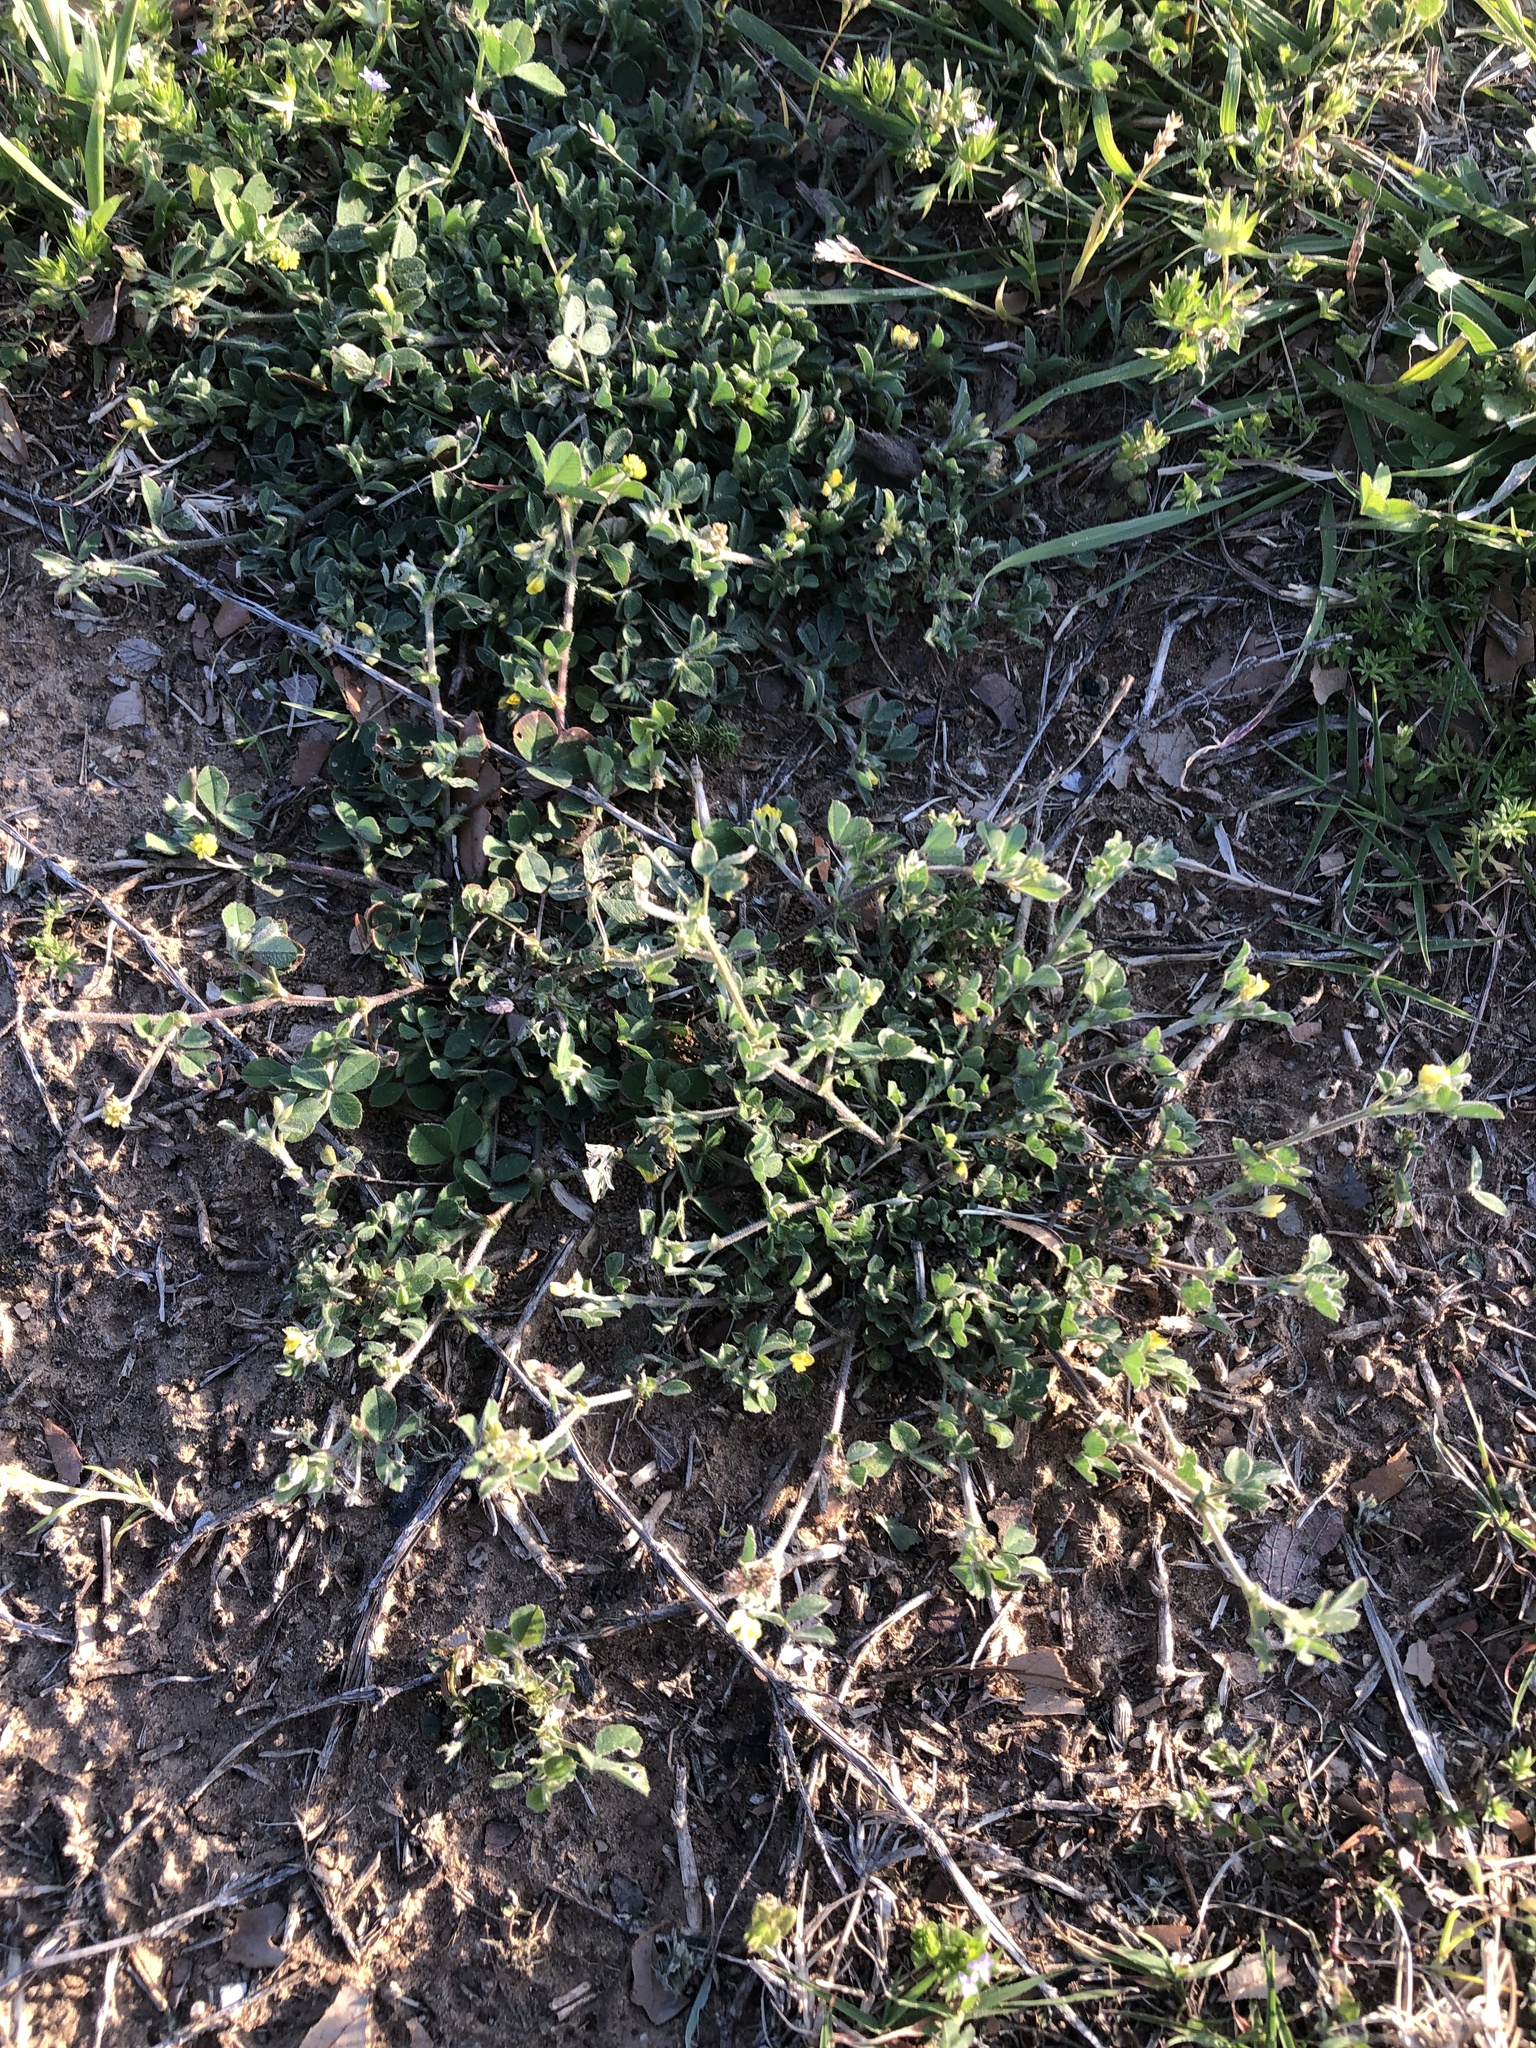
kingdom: Plantae
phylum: Tracheophyta
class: Magnoliopsida
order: Fabales
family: Fabaceae
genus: Medicago
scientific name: Medicago minima
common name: Little bur-clover
